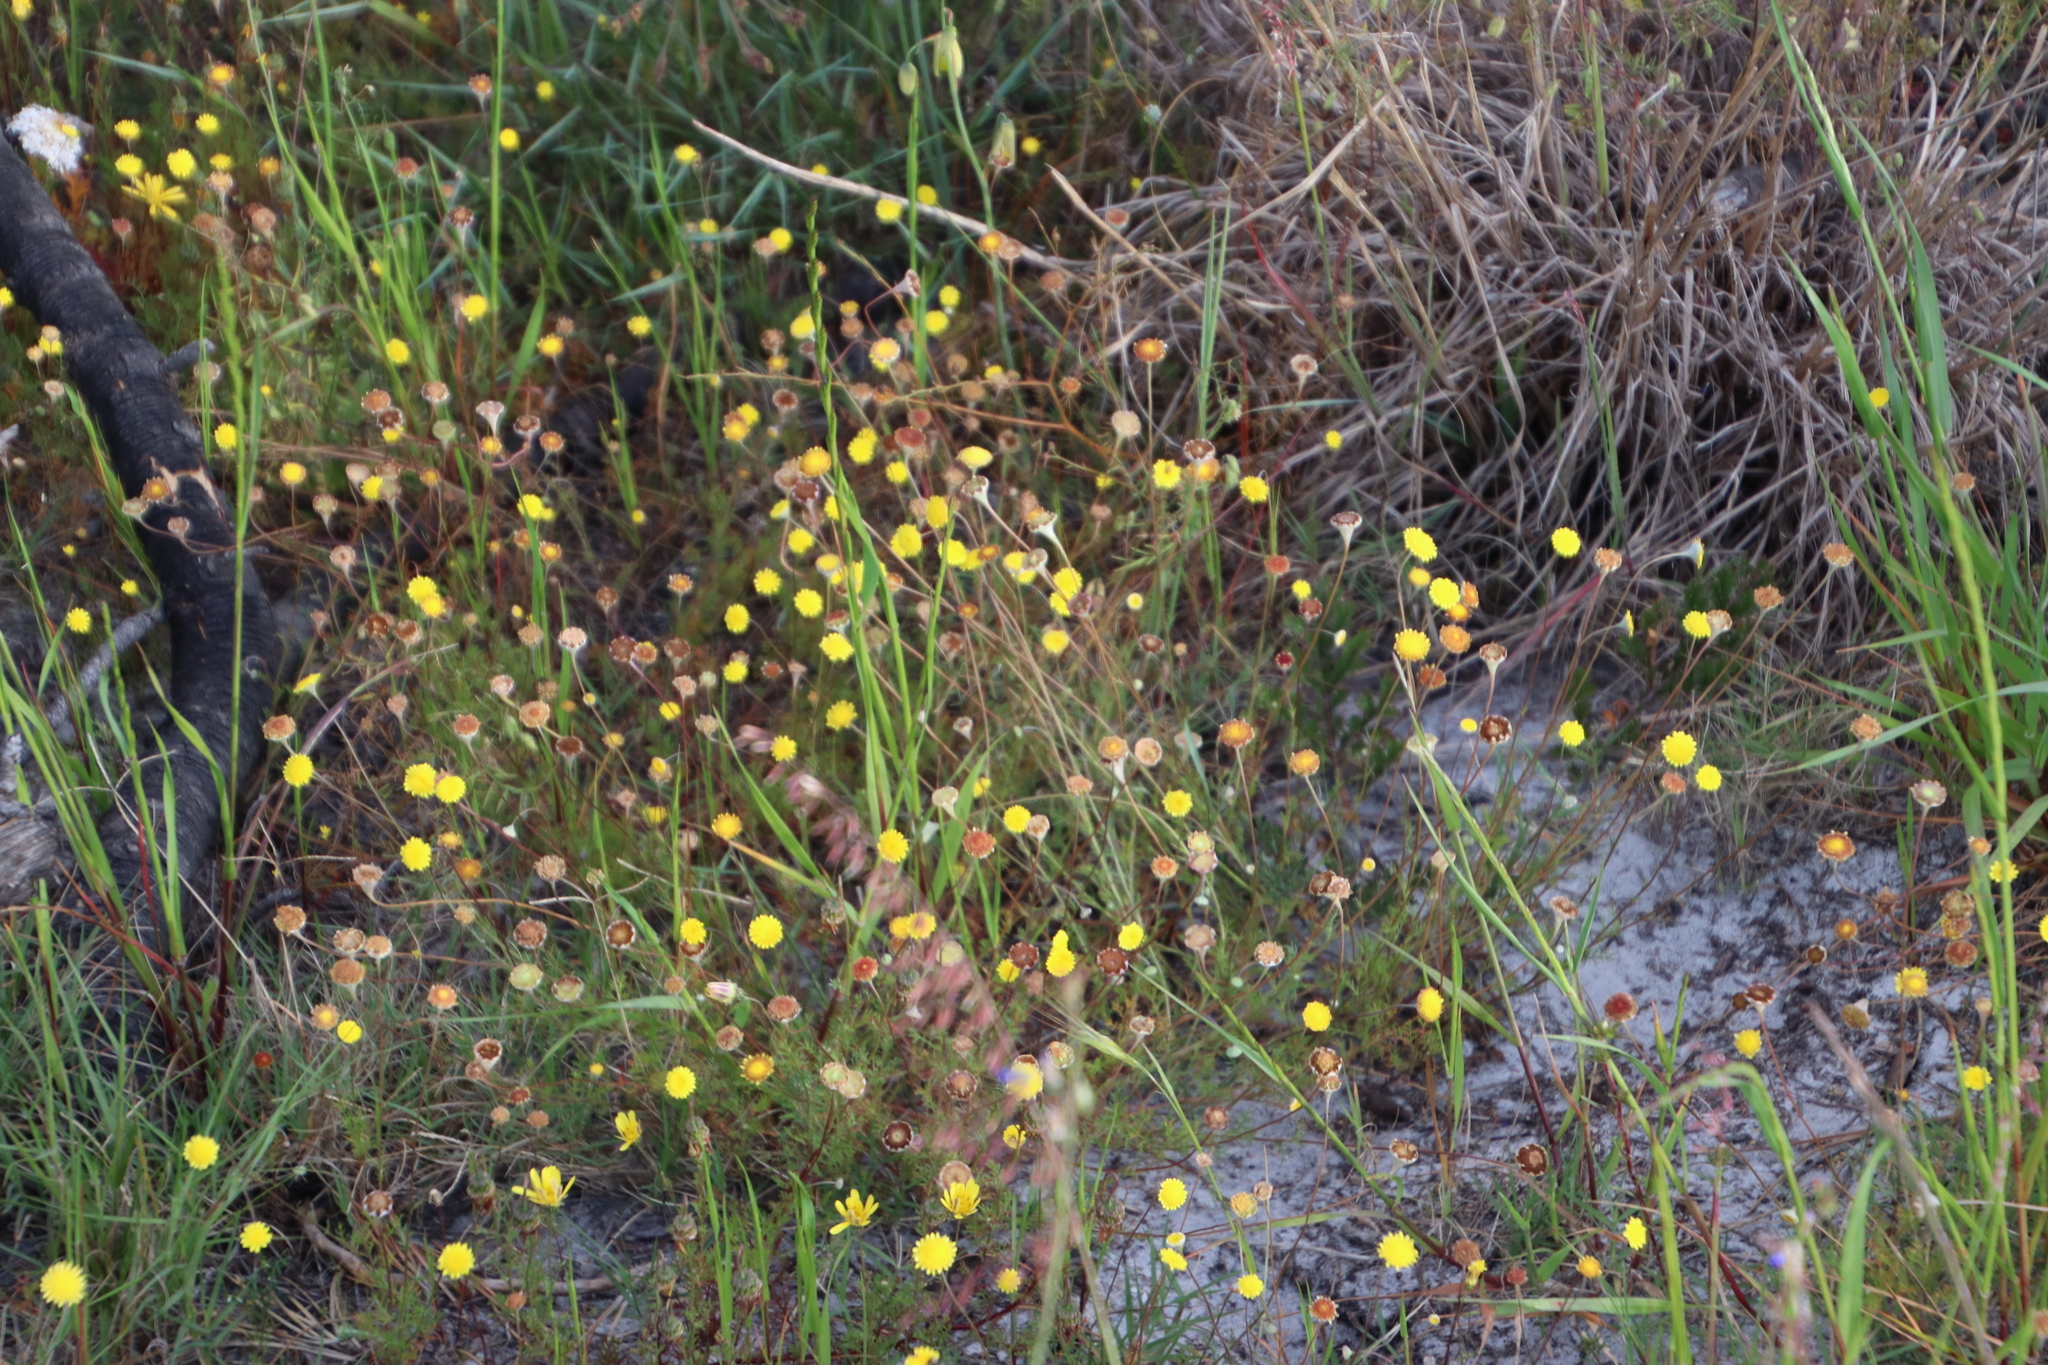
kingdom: Plantae
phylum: Tracheophyta
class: Magnoliopsida
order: Asterales
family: Asteraceae
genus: Cotula
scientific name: Cotula pruinosa
